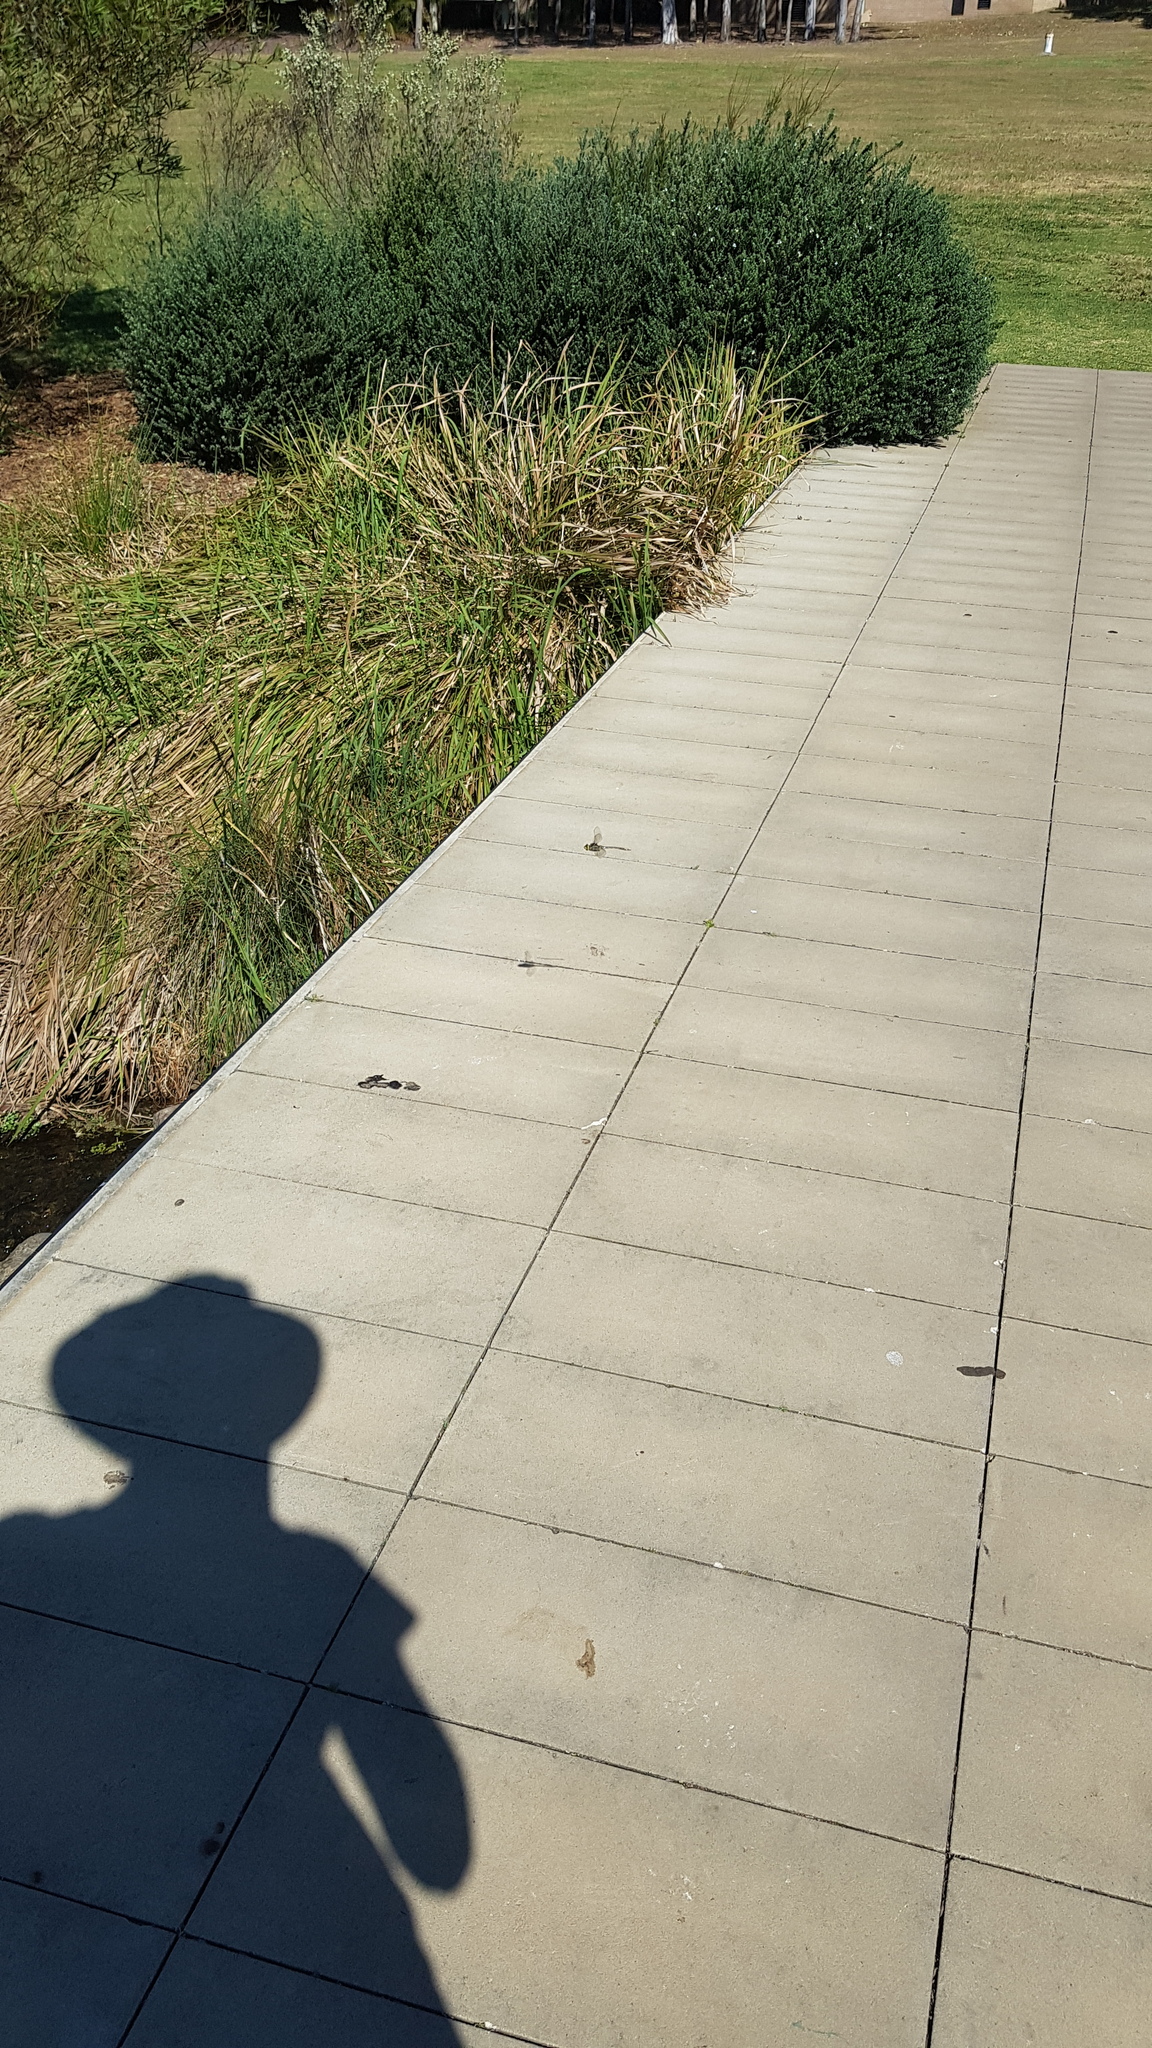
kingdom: Animalia
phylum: Arthropoda
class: Insecta
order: Odonata
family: Aeshnidae
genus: Anax
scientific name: Anax papuensis
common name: Australian emperor
